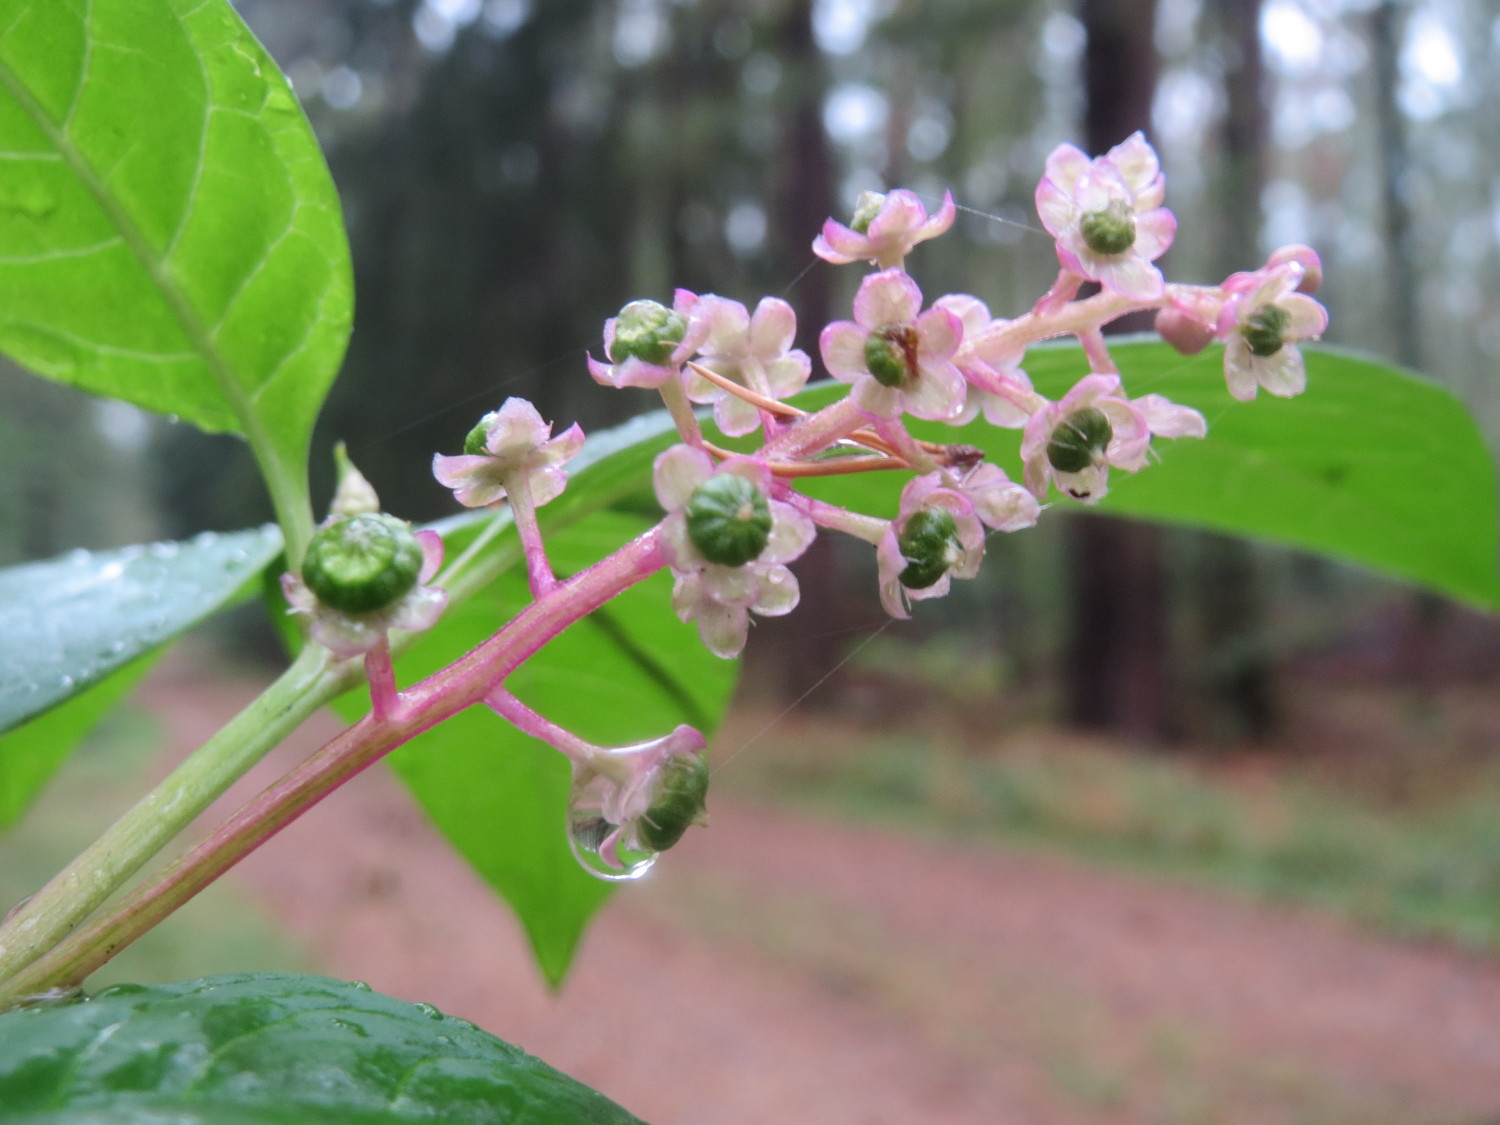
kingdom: Plantae
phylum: Tracheophyta
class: Magnoliopsida
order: Caryophyllales
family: Phytolaccaceae
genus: Phytolacca
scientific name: Phytolacca americana
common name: American pokeweed
